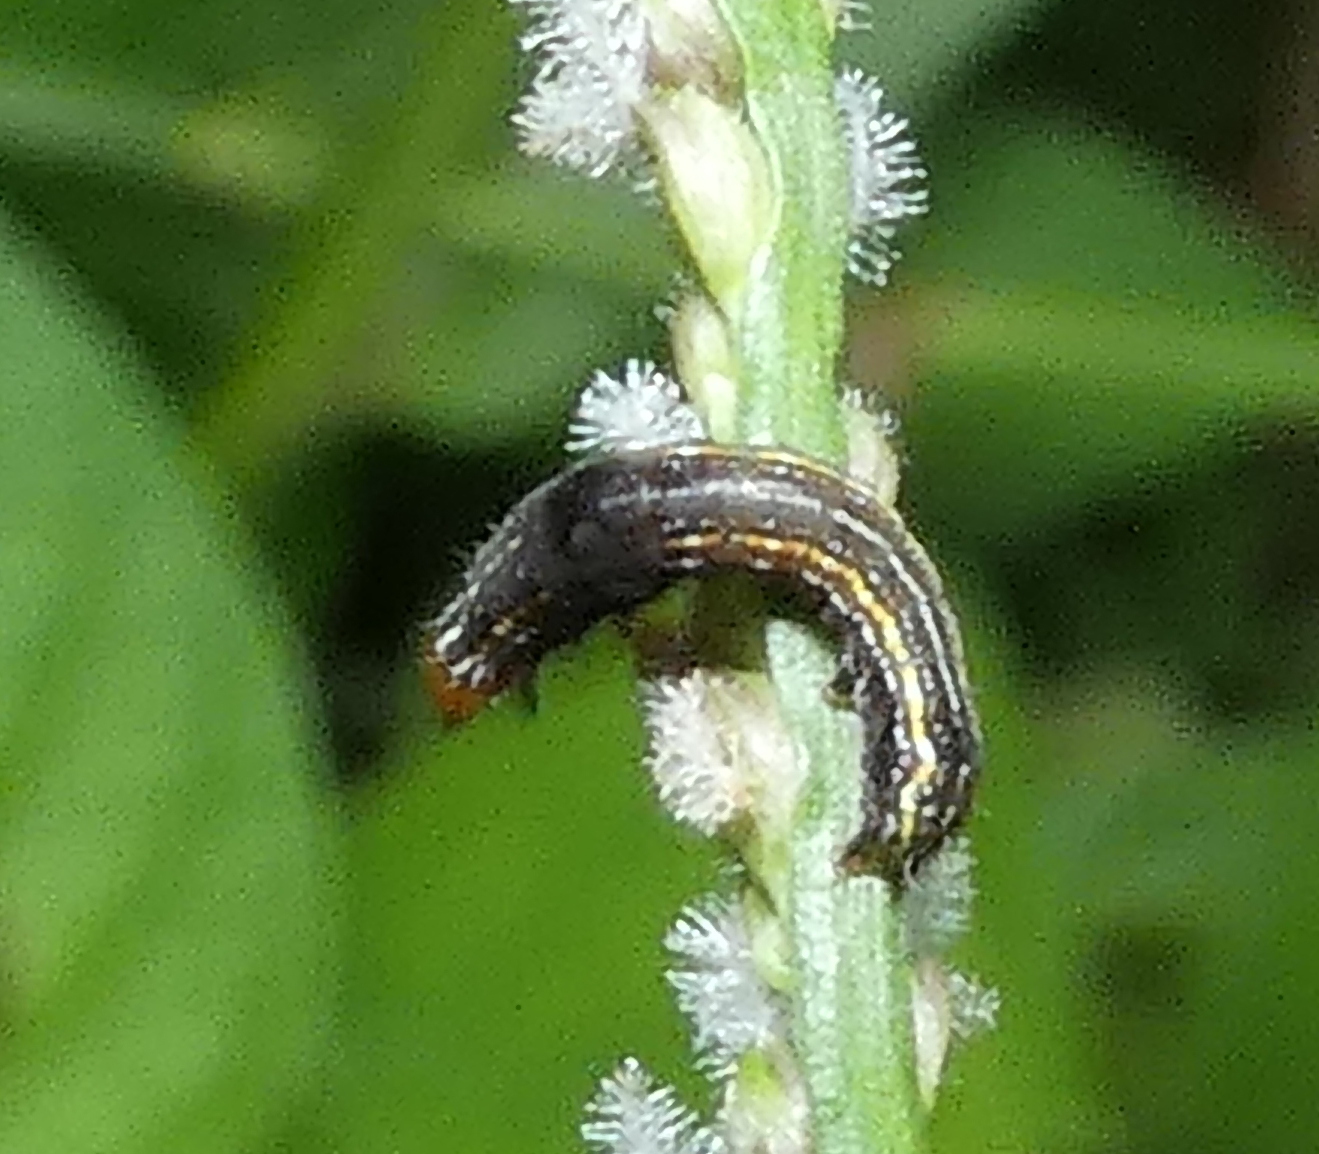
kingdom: Animalia
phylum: Arthropoda
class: Insecta
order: Lepidoptera
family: Noctuidae
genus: Spodoptera
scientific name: Spodoptera eridania
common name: Southern army worm
